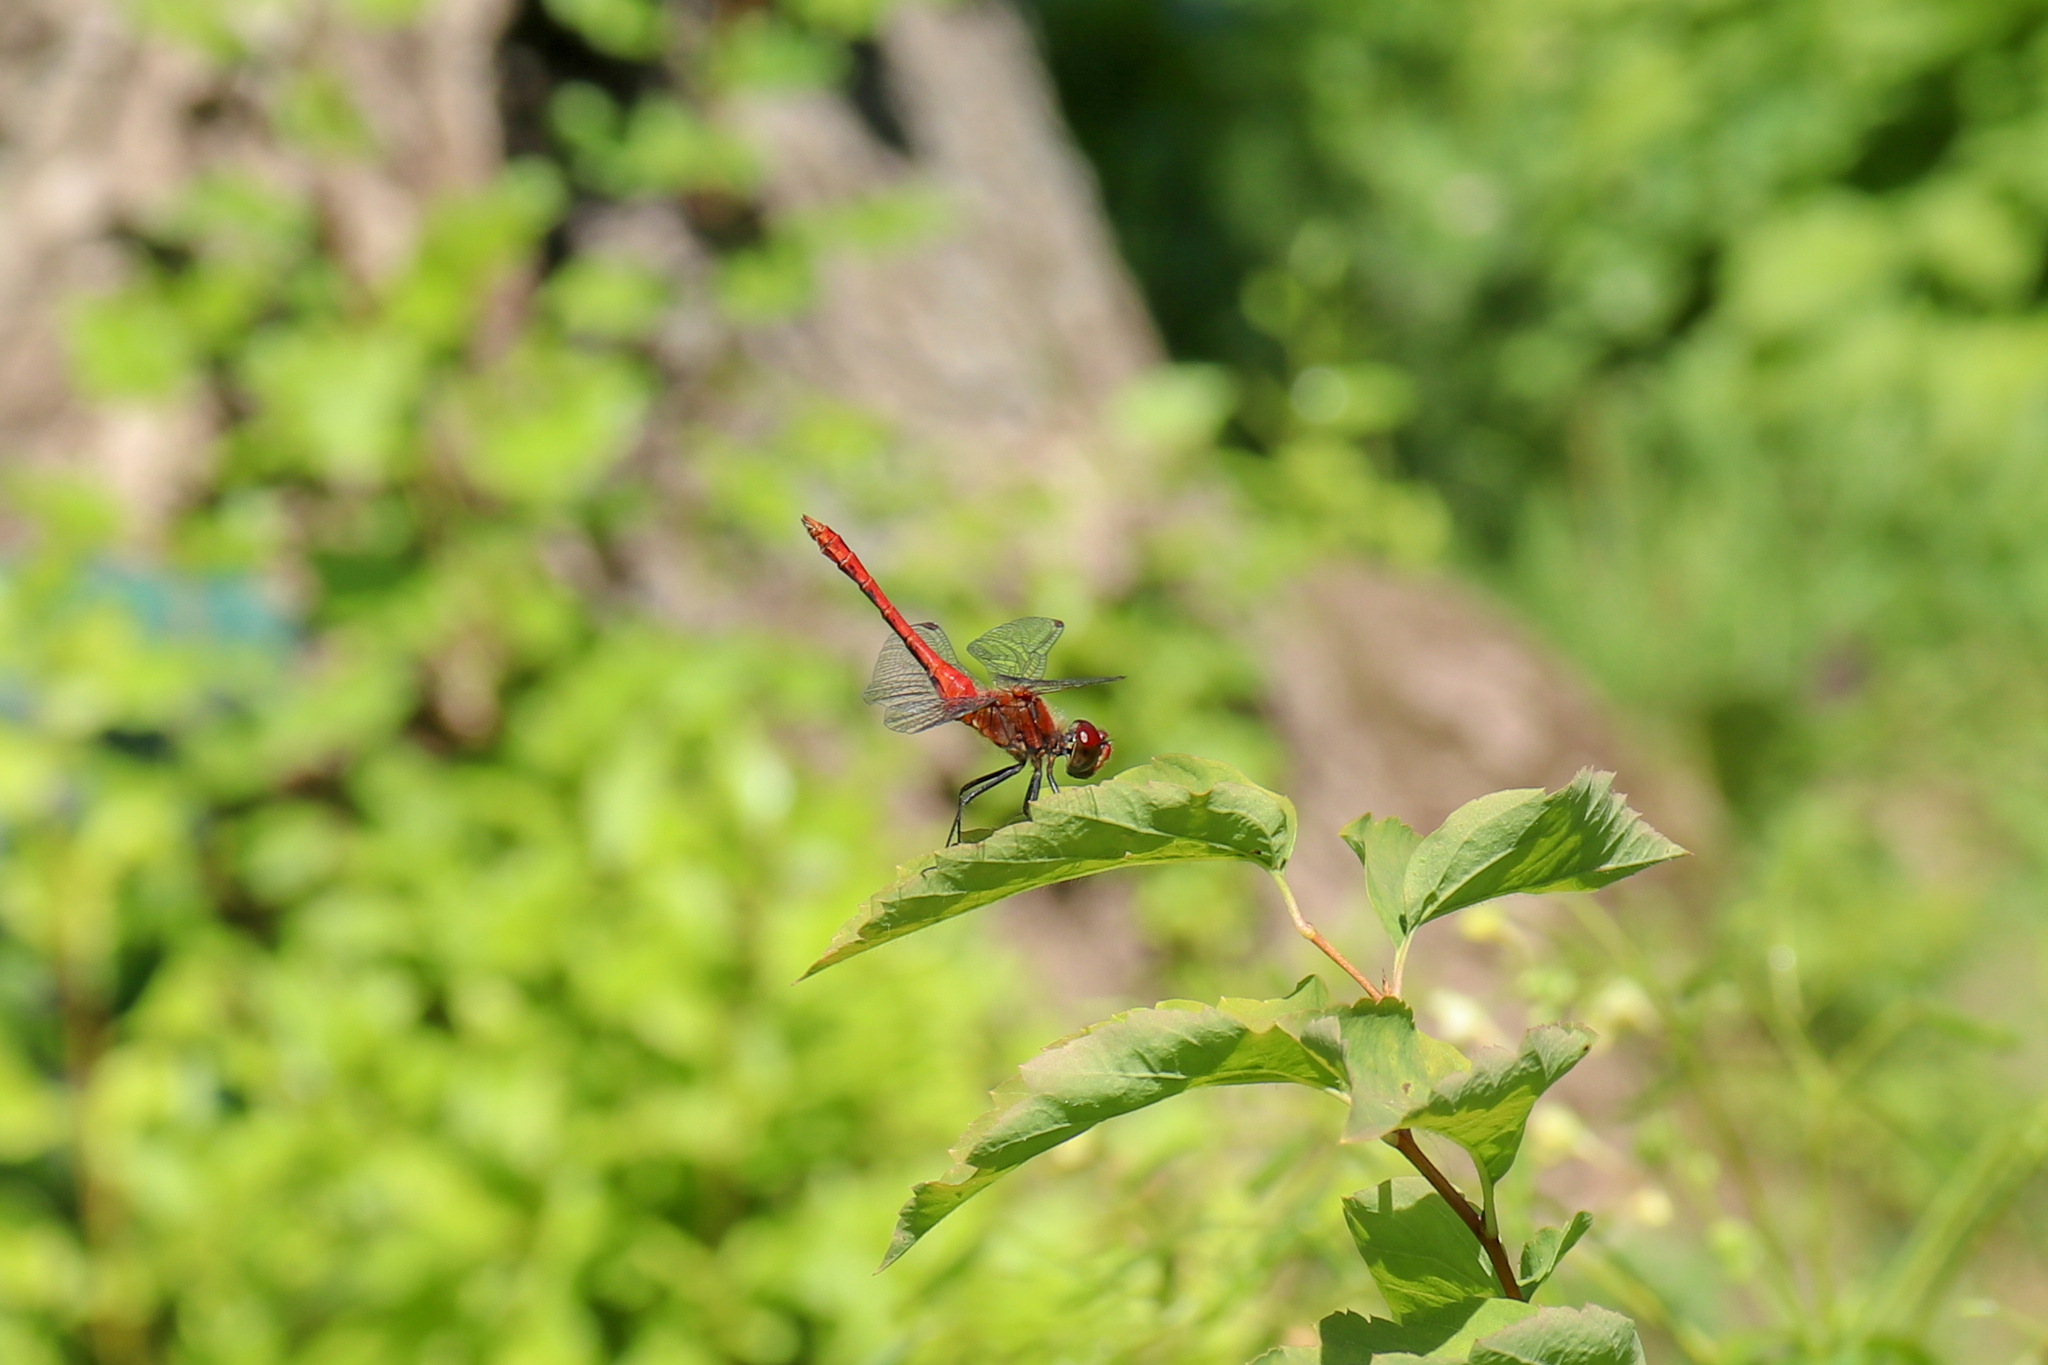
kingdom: Animalia
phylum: Arthropoda
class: Insecta
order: Odonata
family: Libellulidae
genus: Sympetrum
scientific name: Sympetrum sanguineum
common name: Ruddy darter
